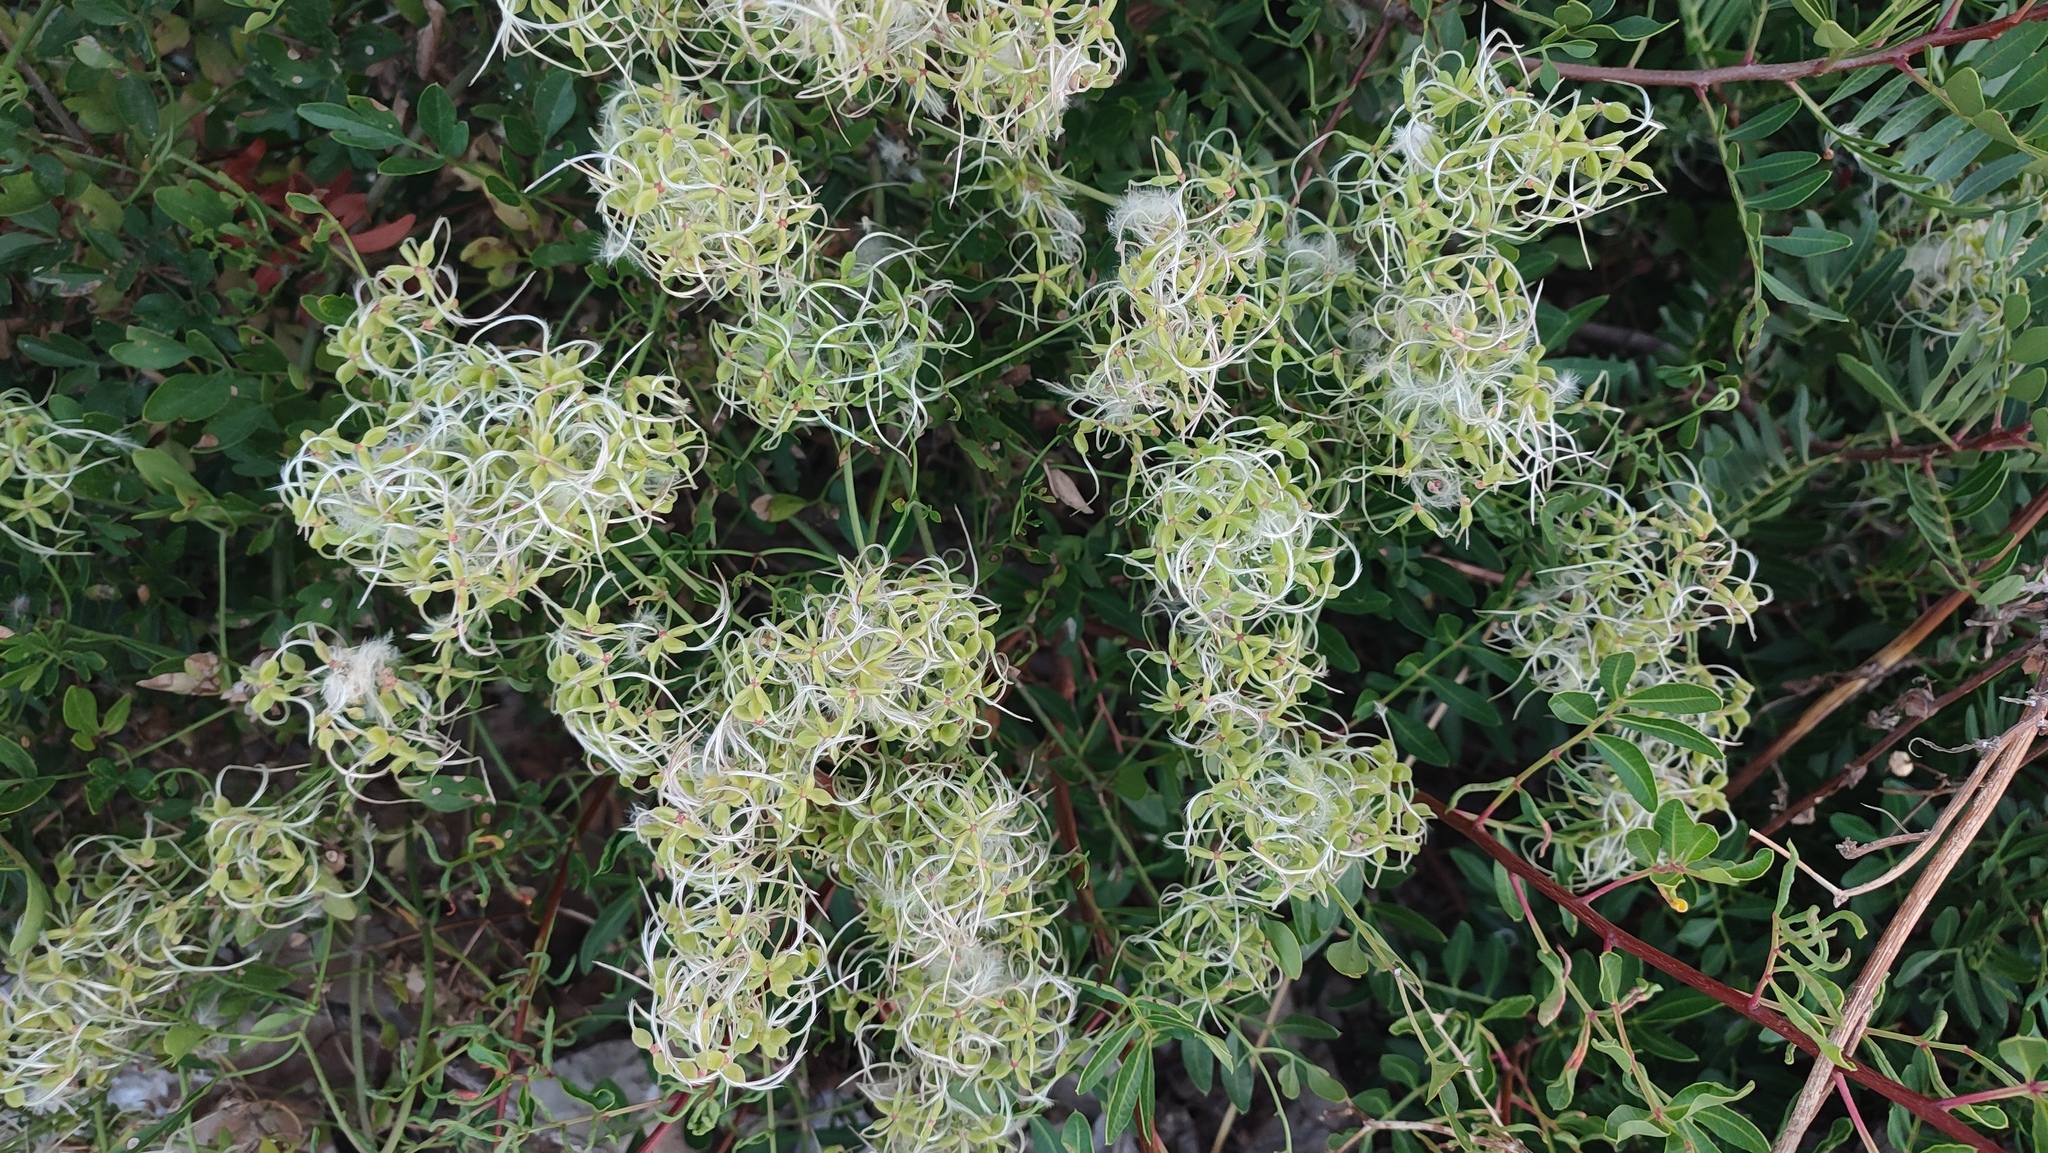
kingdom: Plantae
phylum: Tracheophyta
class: Magnoliopsida
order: Ranunculales
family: Ranunculaceae
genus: Clematis
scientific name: Clematis flammula
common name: Virgin's-bower
